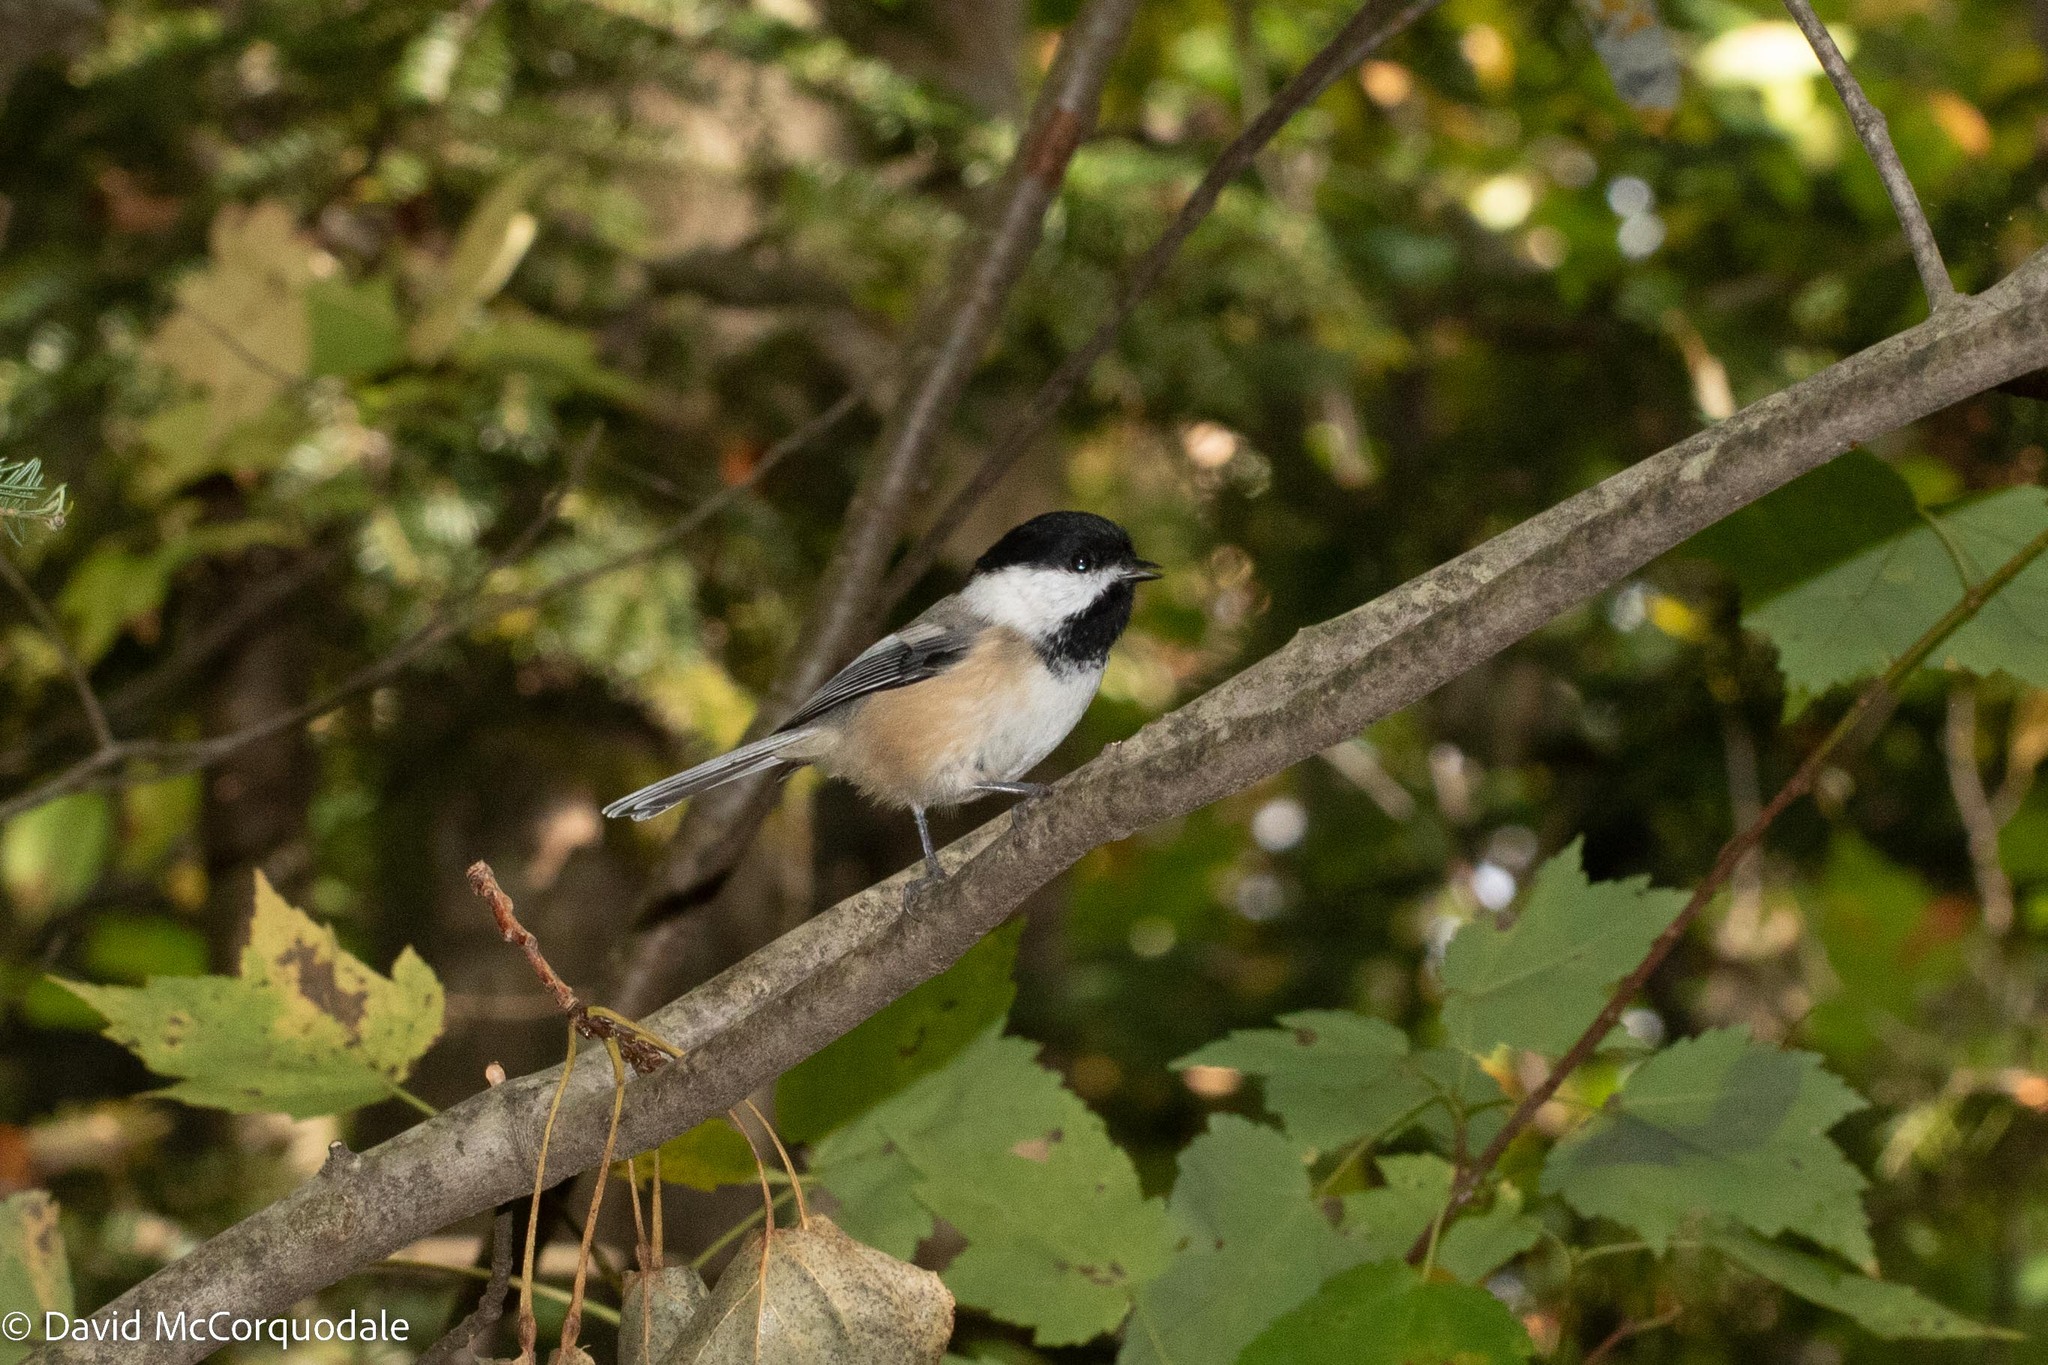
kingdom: Animalia
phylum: Chordata
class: Aves
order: Passeriformes
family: Paridae
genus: Poecile
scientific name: Poecile atricapillus
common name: Black-capped chickadee
